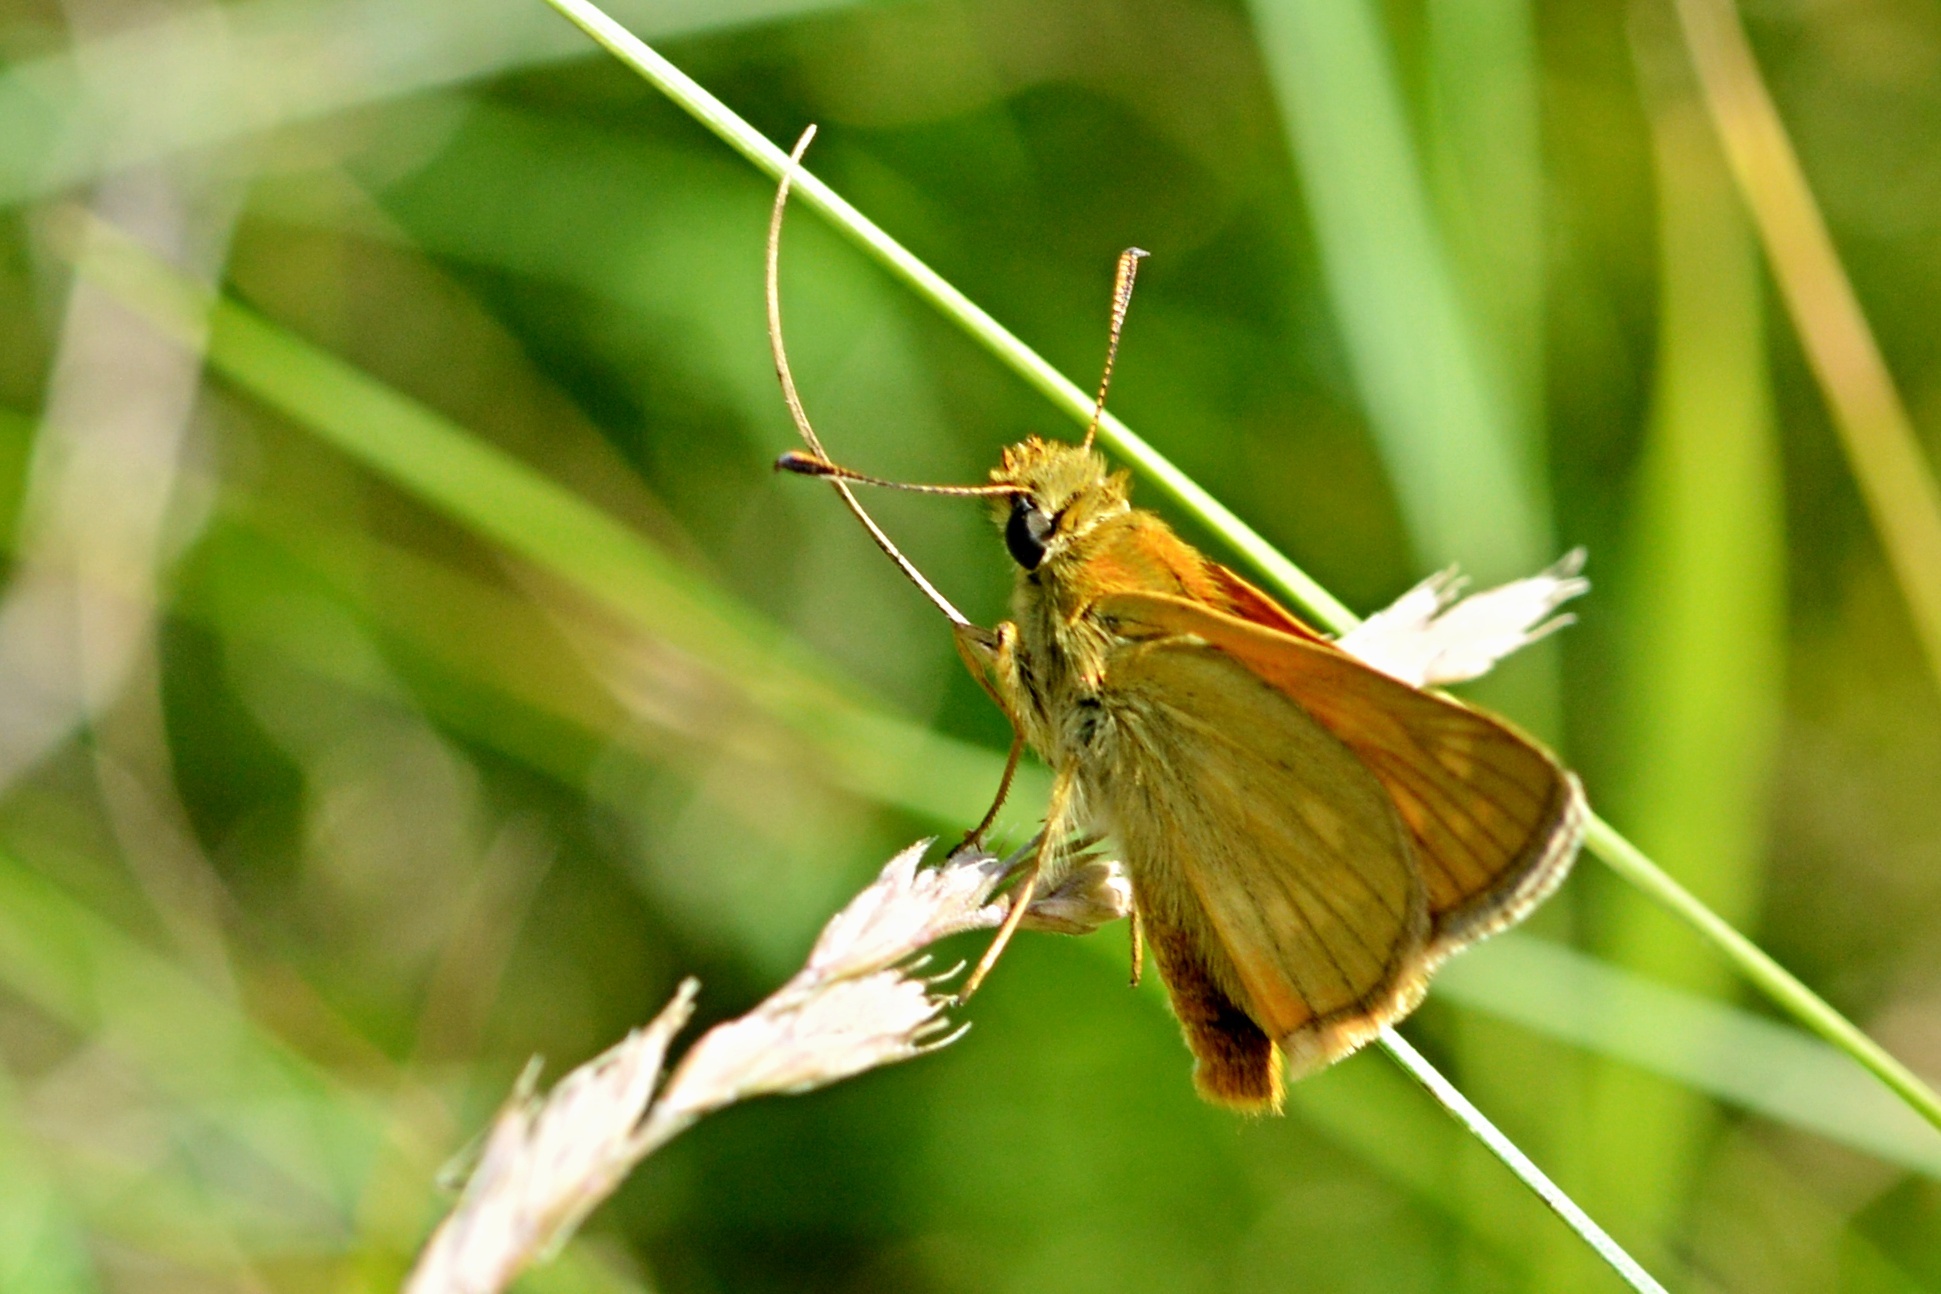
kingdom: Animalia
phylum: Arthropoda
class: Insecta
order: Lepidoptera
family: Hesperiidae
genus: Ochlodes
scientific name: Ochlodes venata
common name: Large skipper
